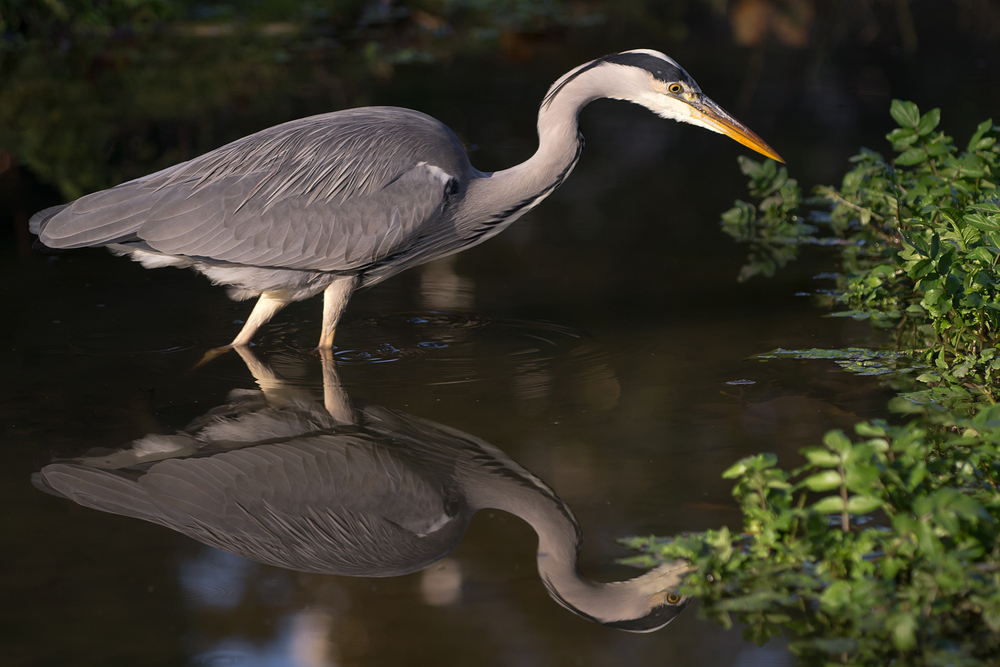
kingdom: Animalia
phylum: Chordata
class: Aves
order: Pelecaniformes
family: Ardeidae
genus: Ardea
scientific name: Ardea cinerea
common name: Grey heron
